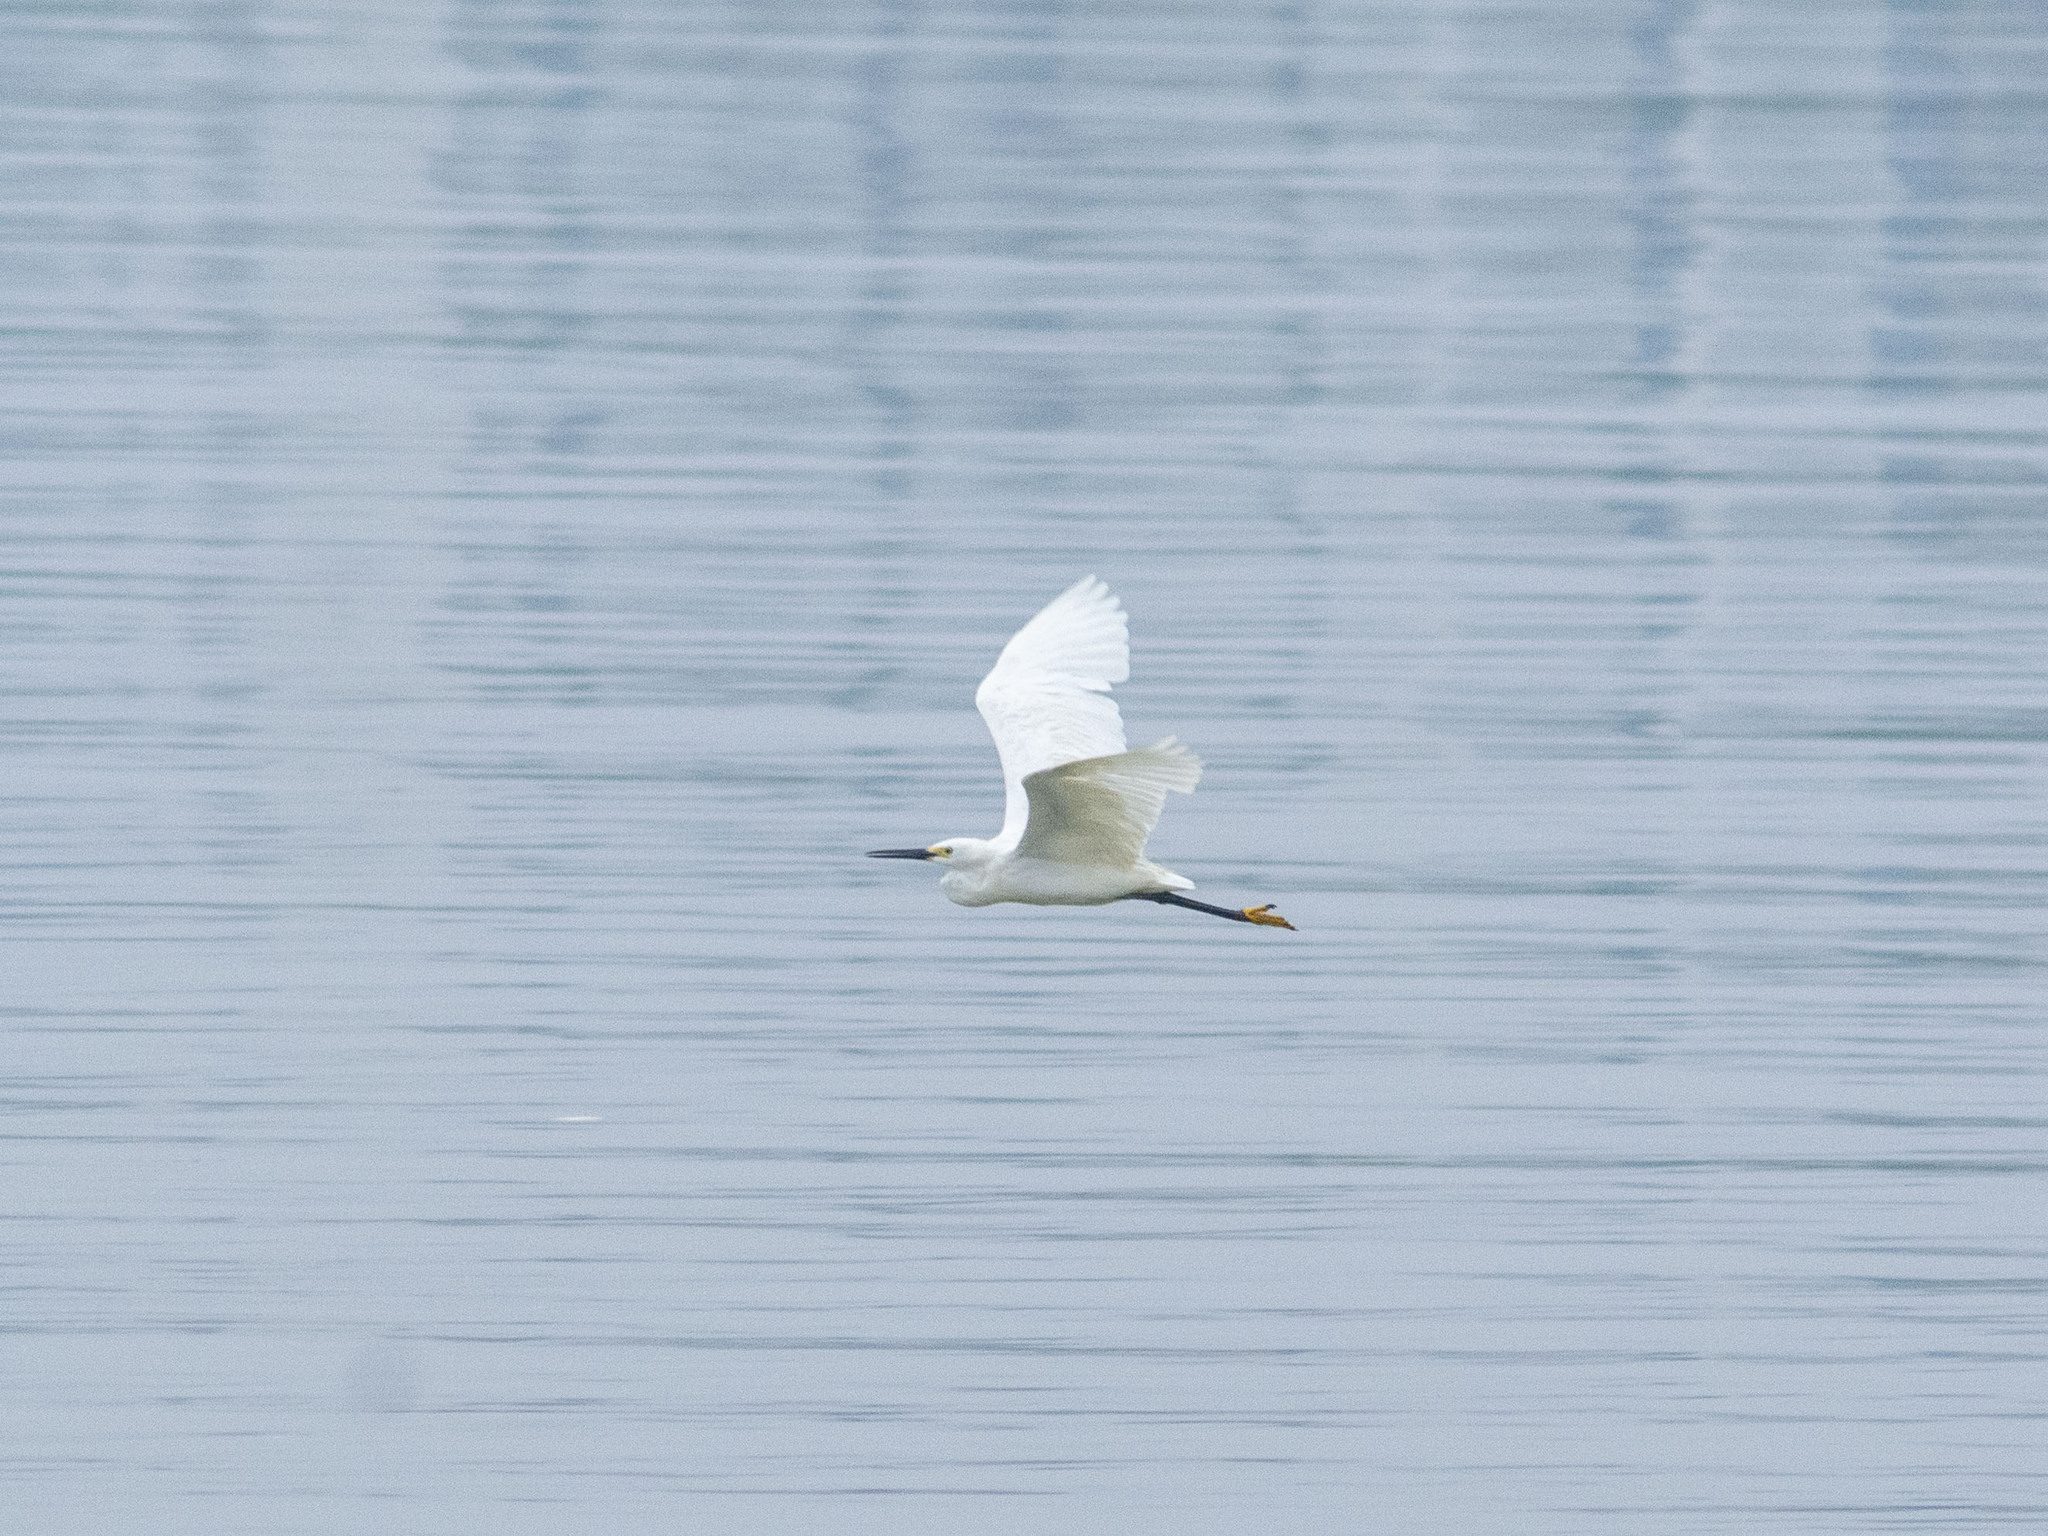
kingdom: Animalia
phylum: Chordata
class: Aves
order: Pelecaniformes
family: Ardeidae
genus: Egretta
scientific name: Egretta garzetta
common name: Little egret
